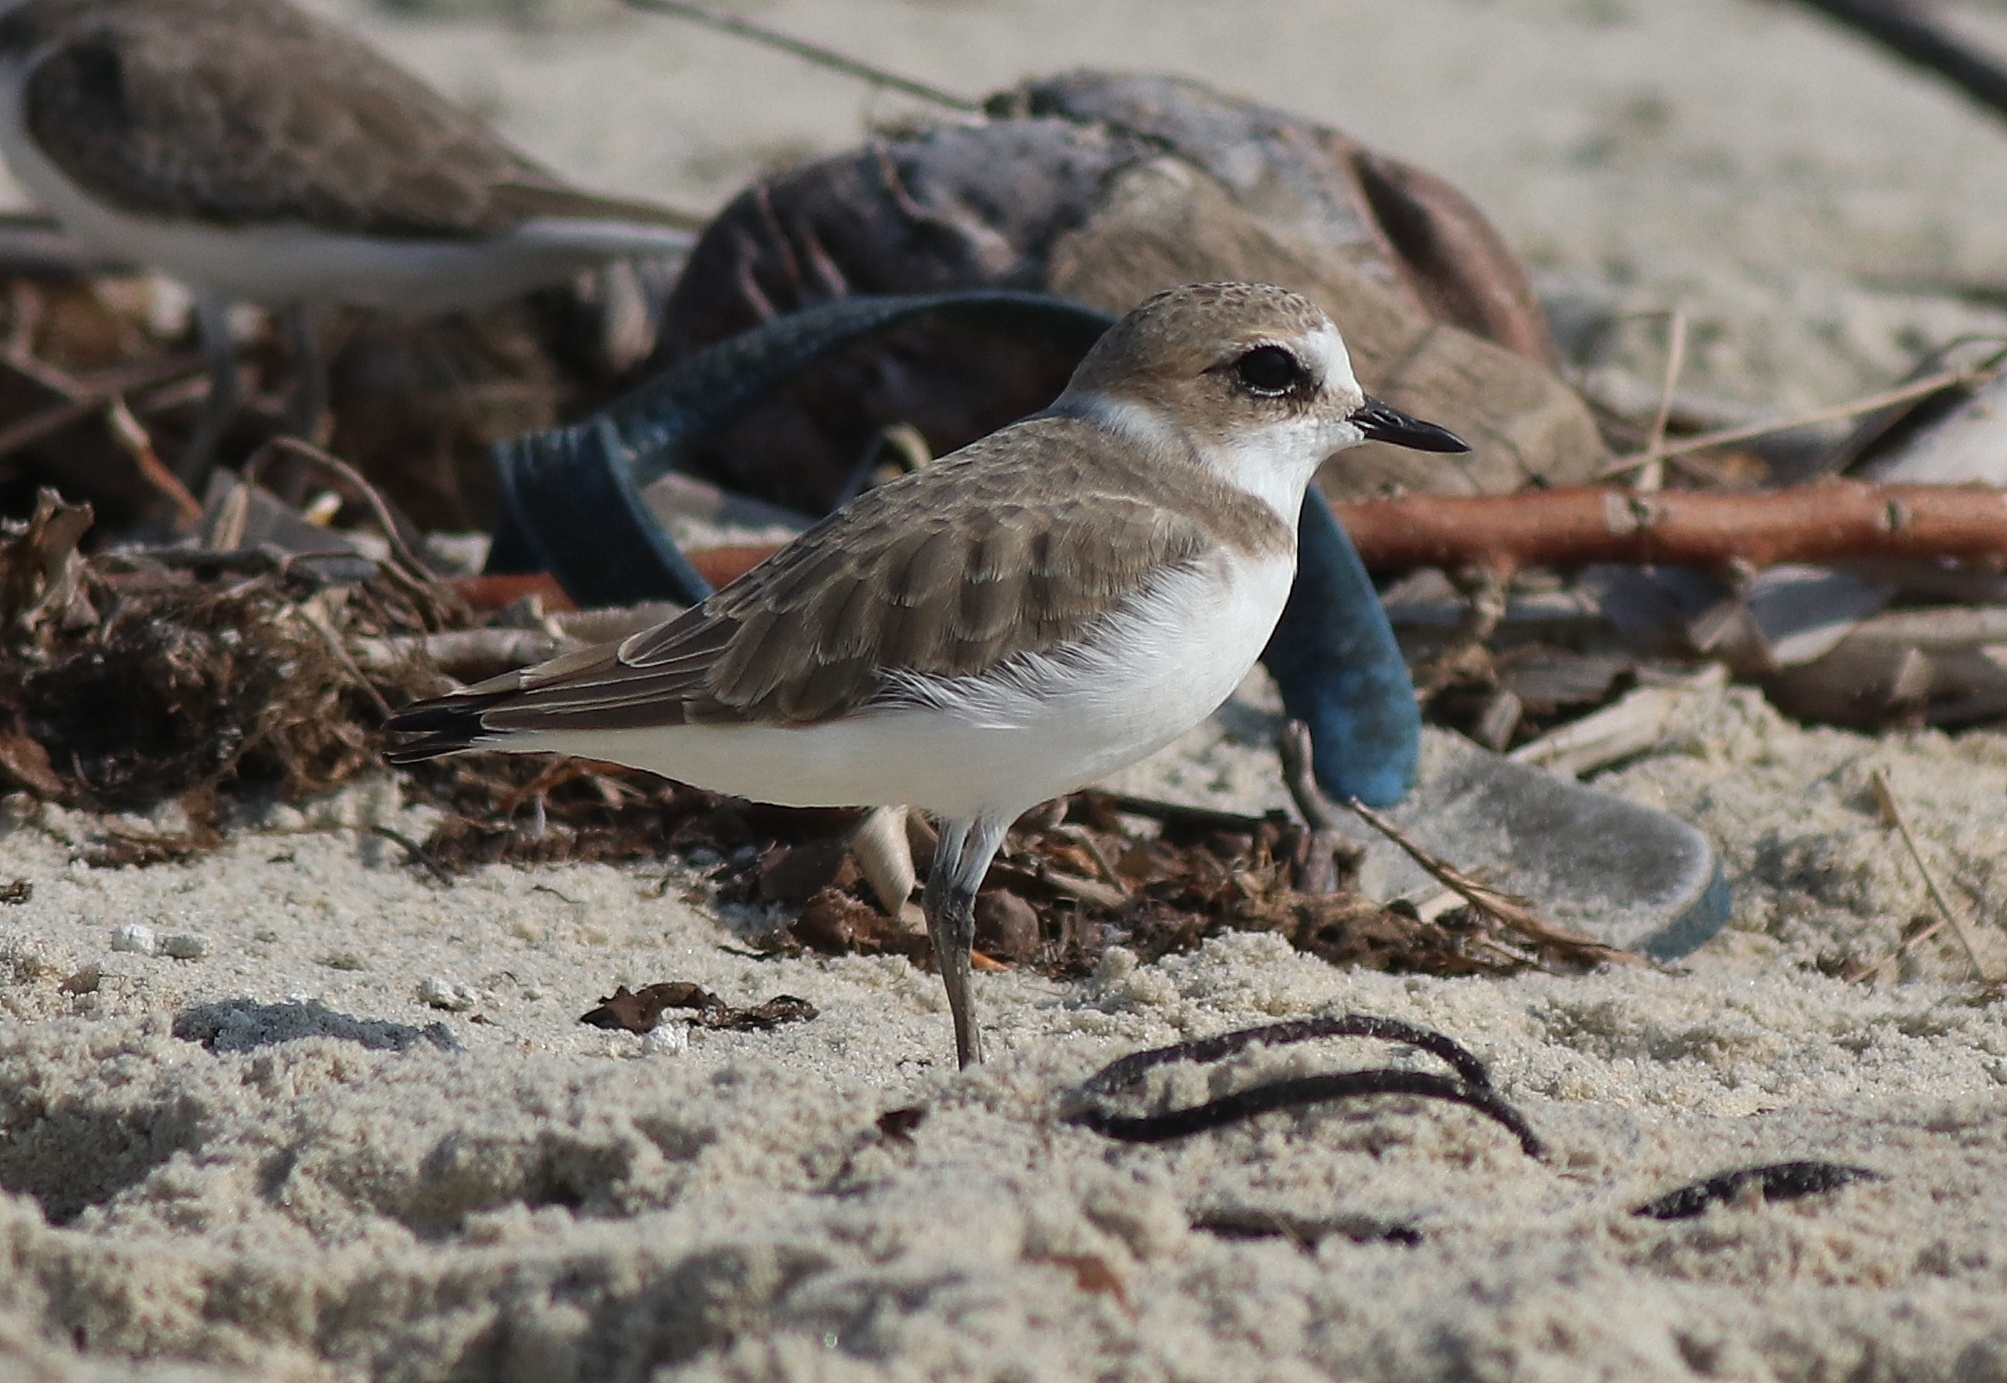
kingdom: Animalia
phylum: Chordata
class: Aves
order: Charadriiformes
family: Charadriidae
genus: Charadrius
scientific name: Charadrius alexandrinus
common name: Kentish plover
